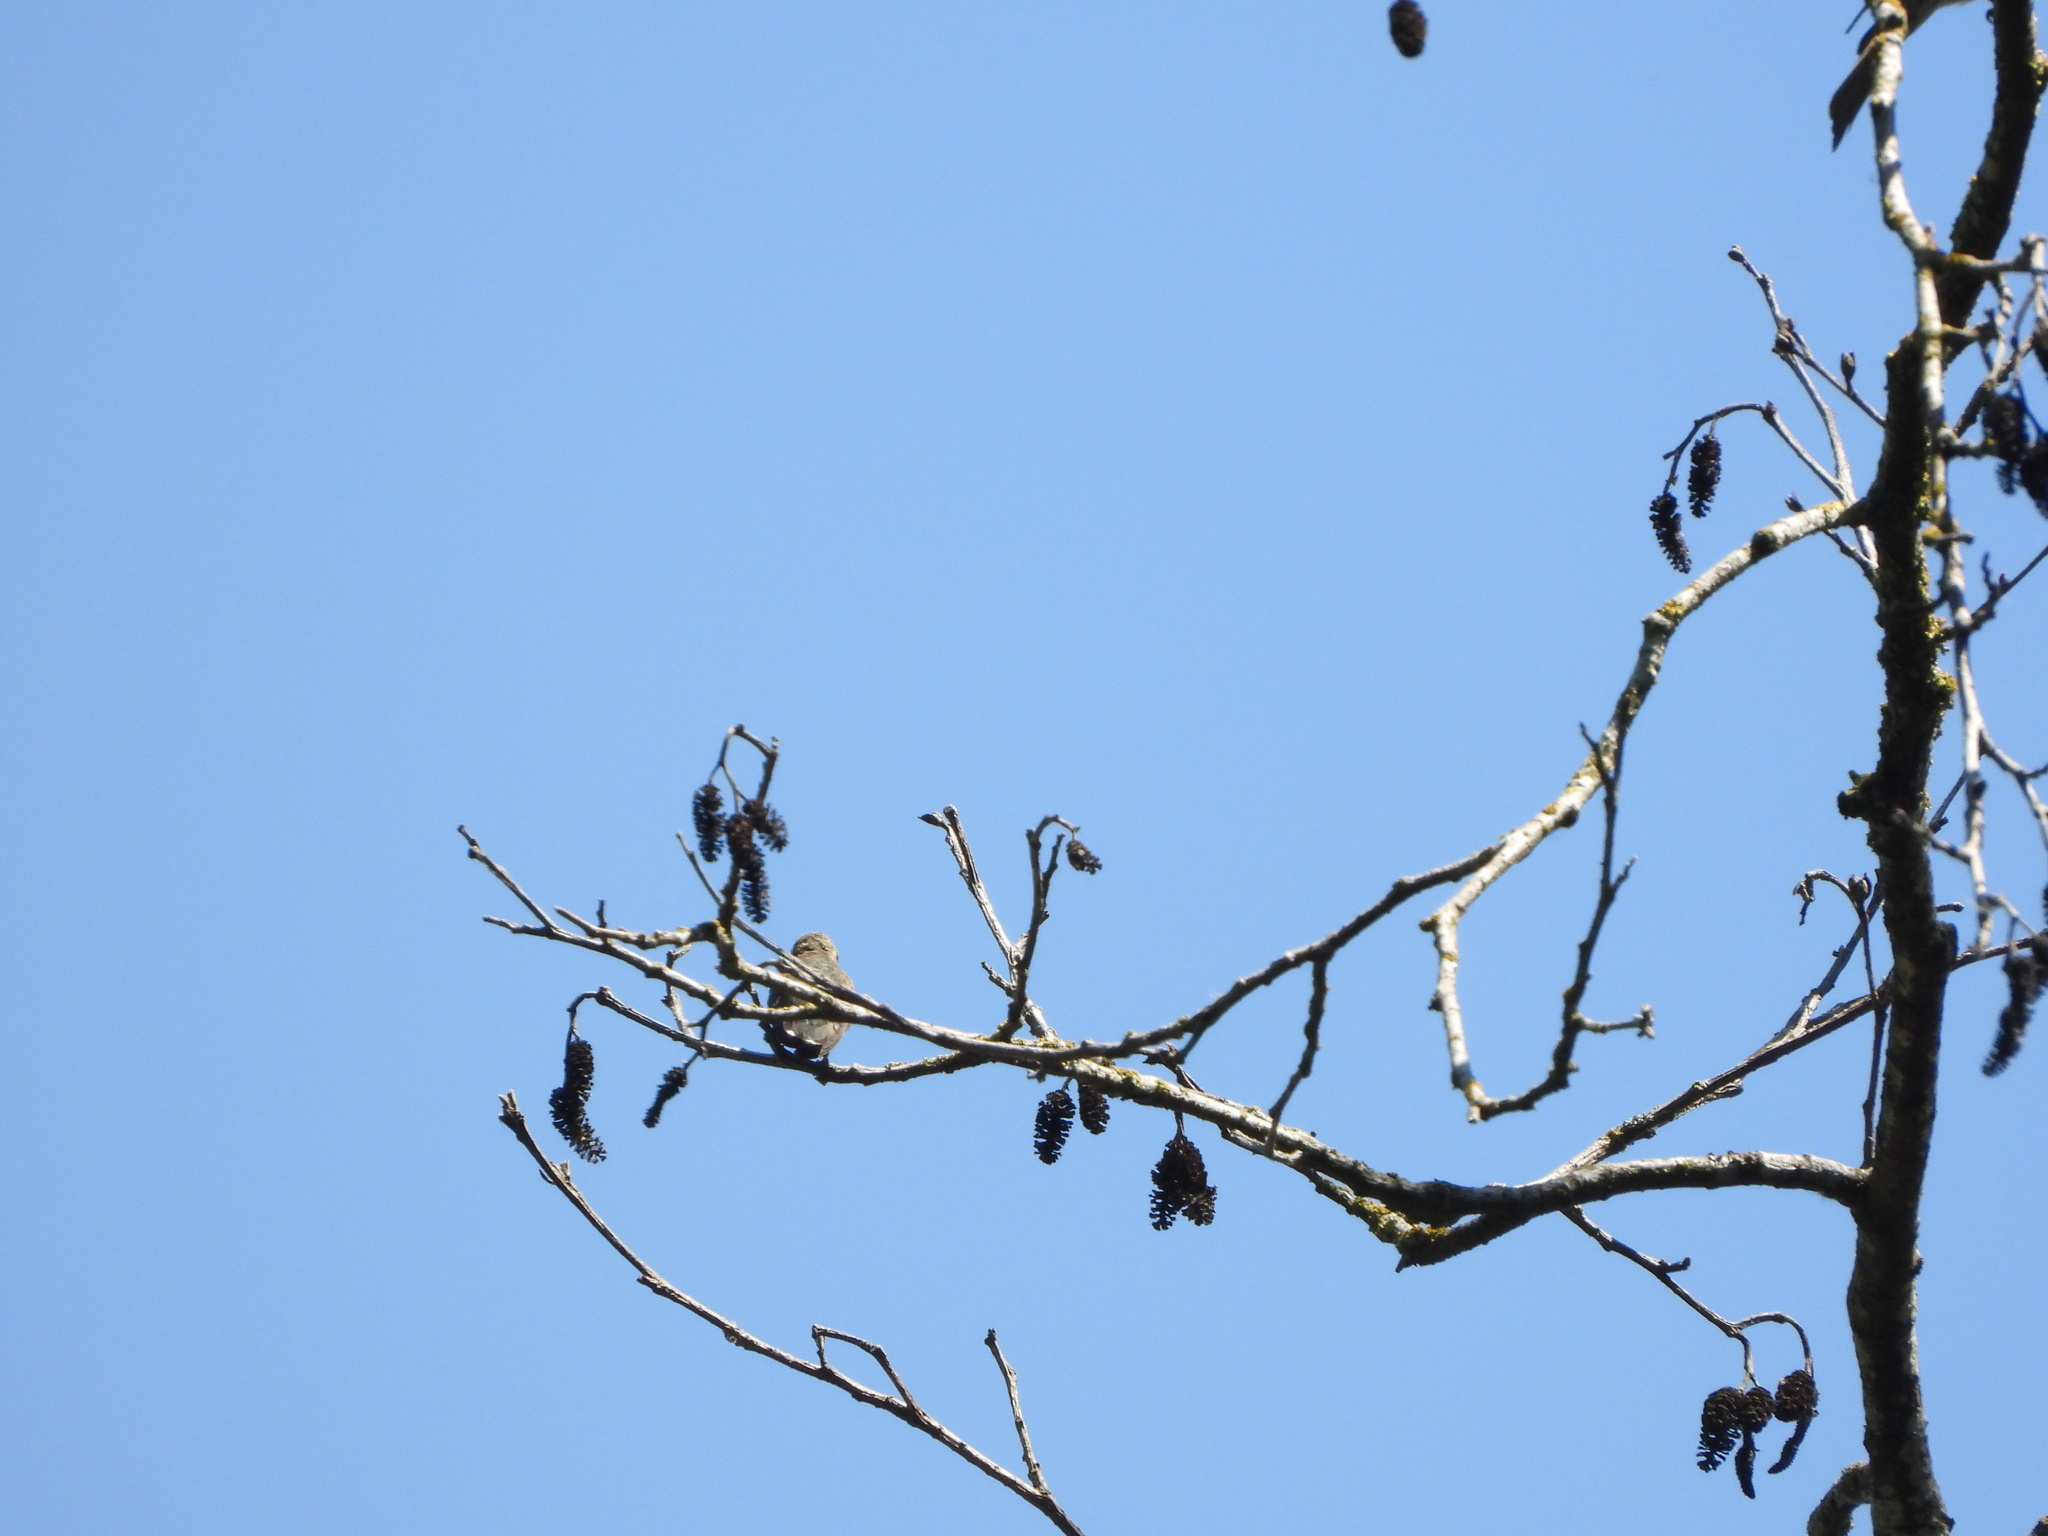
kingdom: Animalia
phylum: Chordata
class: Aves
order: Apodiformes
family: Trochilidae
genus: Calypte
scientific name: Calypte anna
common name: Anna's hummingbird
